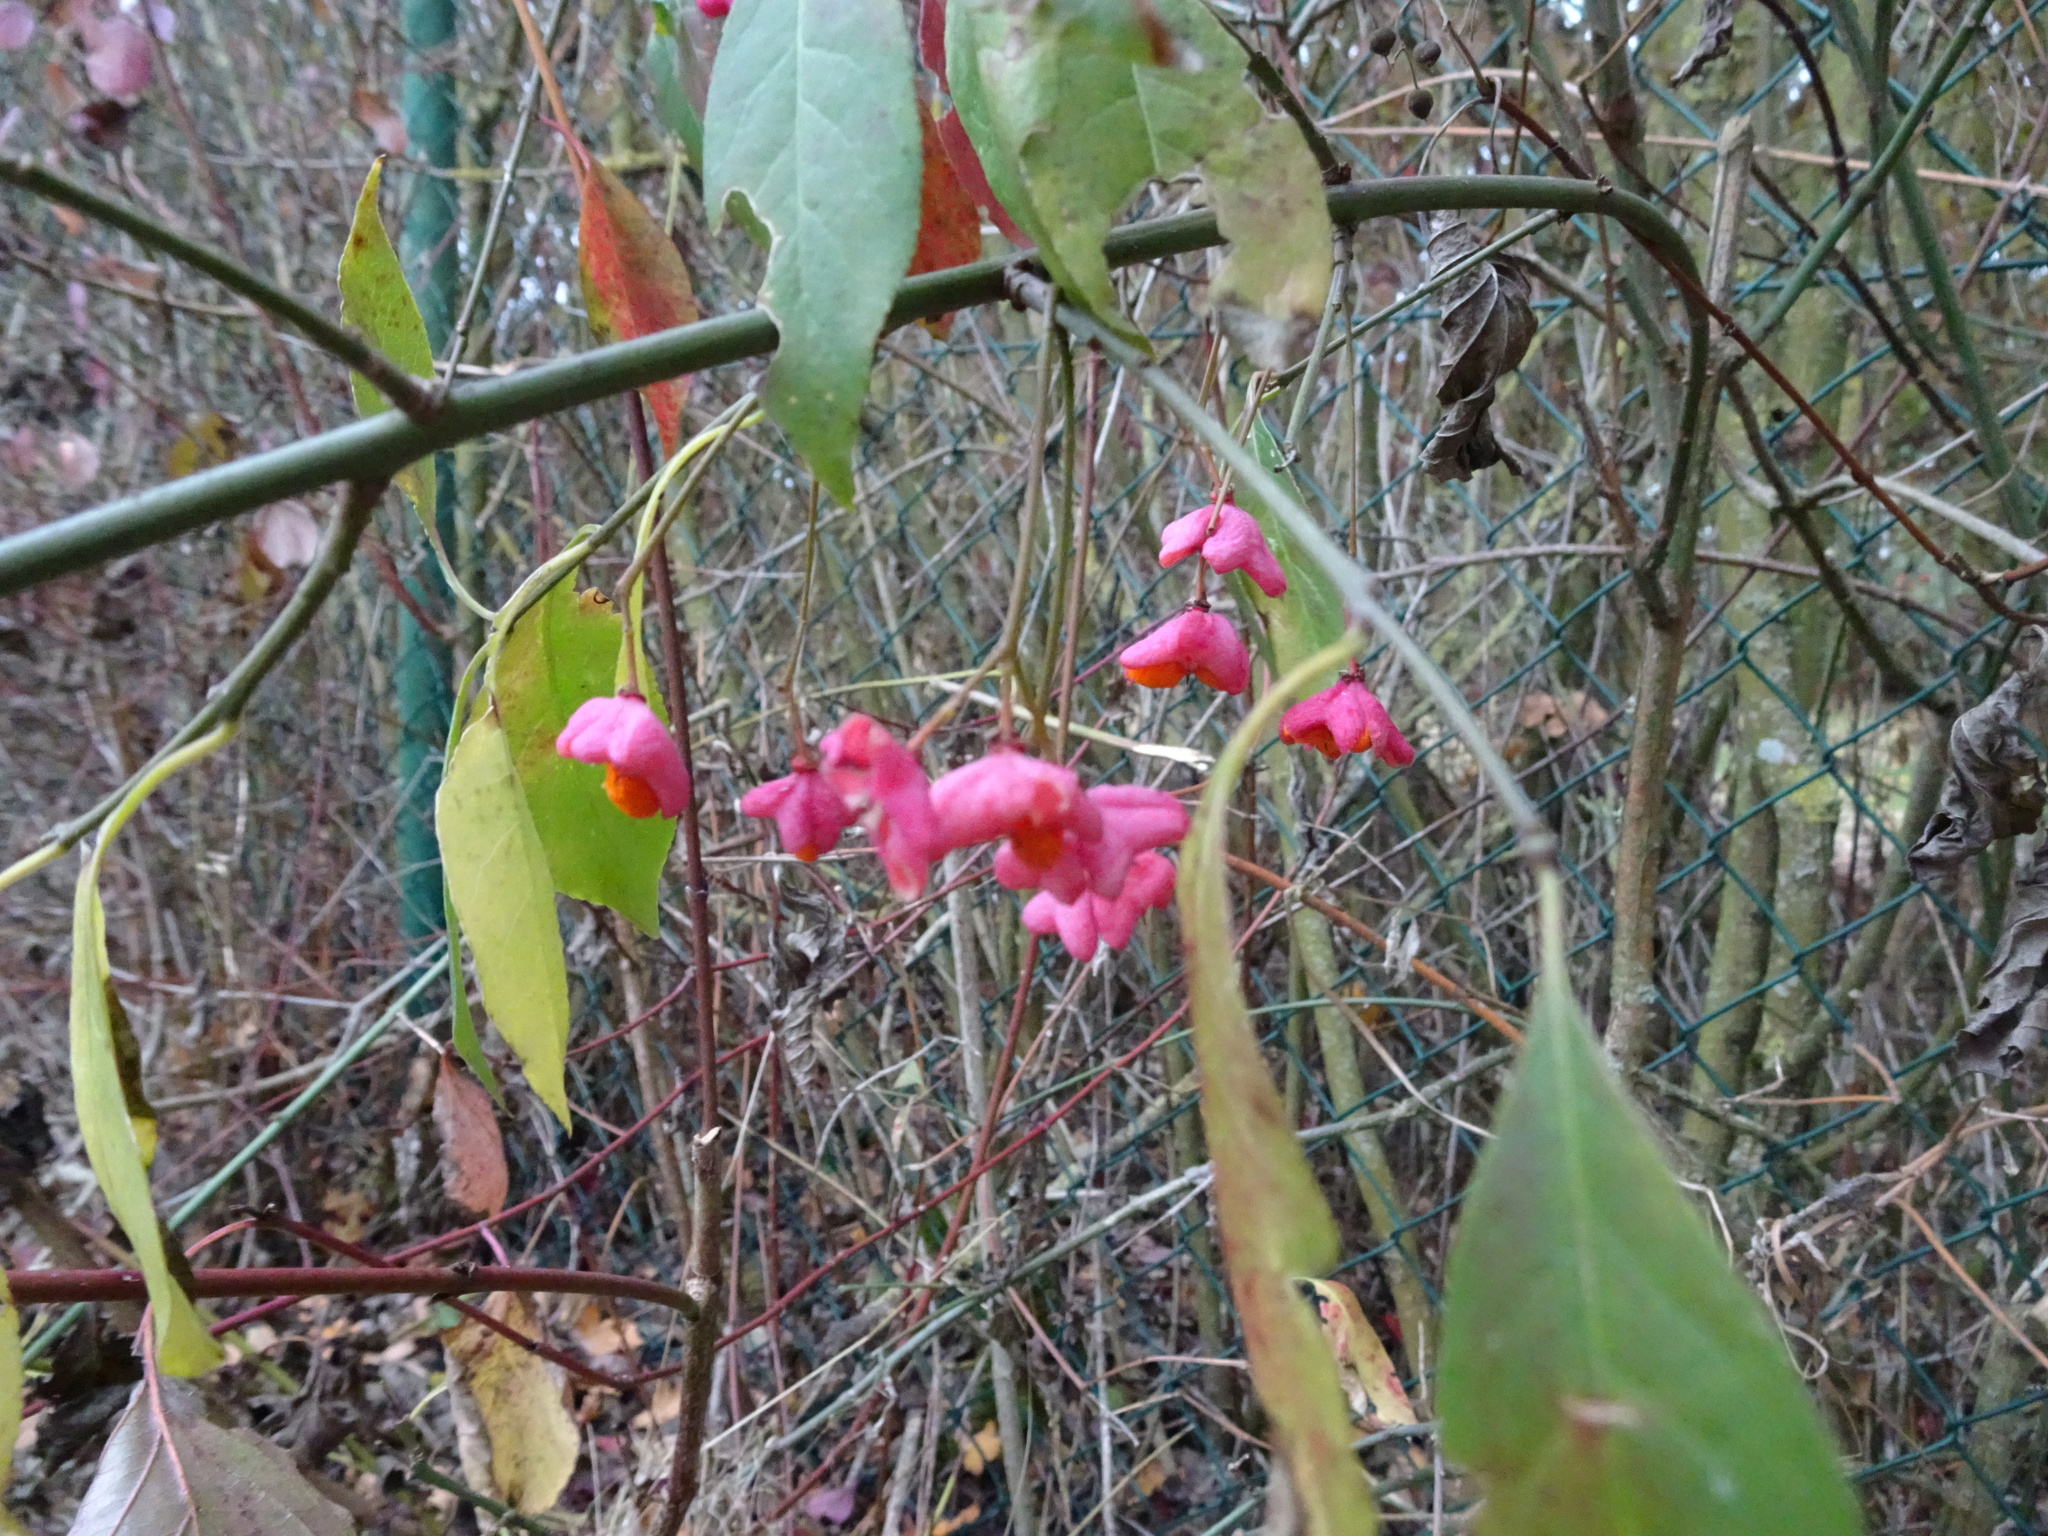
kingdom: Plantae
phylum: Tracheophyta
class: Magnoliopsida
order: Celastrales
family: Celastraceae
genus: Euonymus
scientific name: Euonymus europaeus
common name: Spindle
